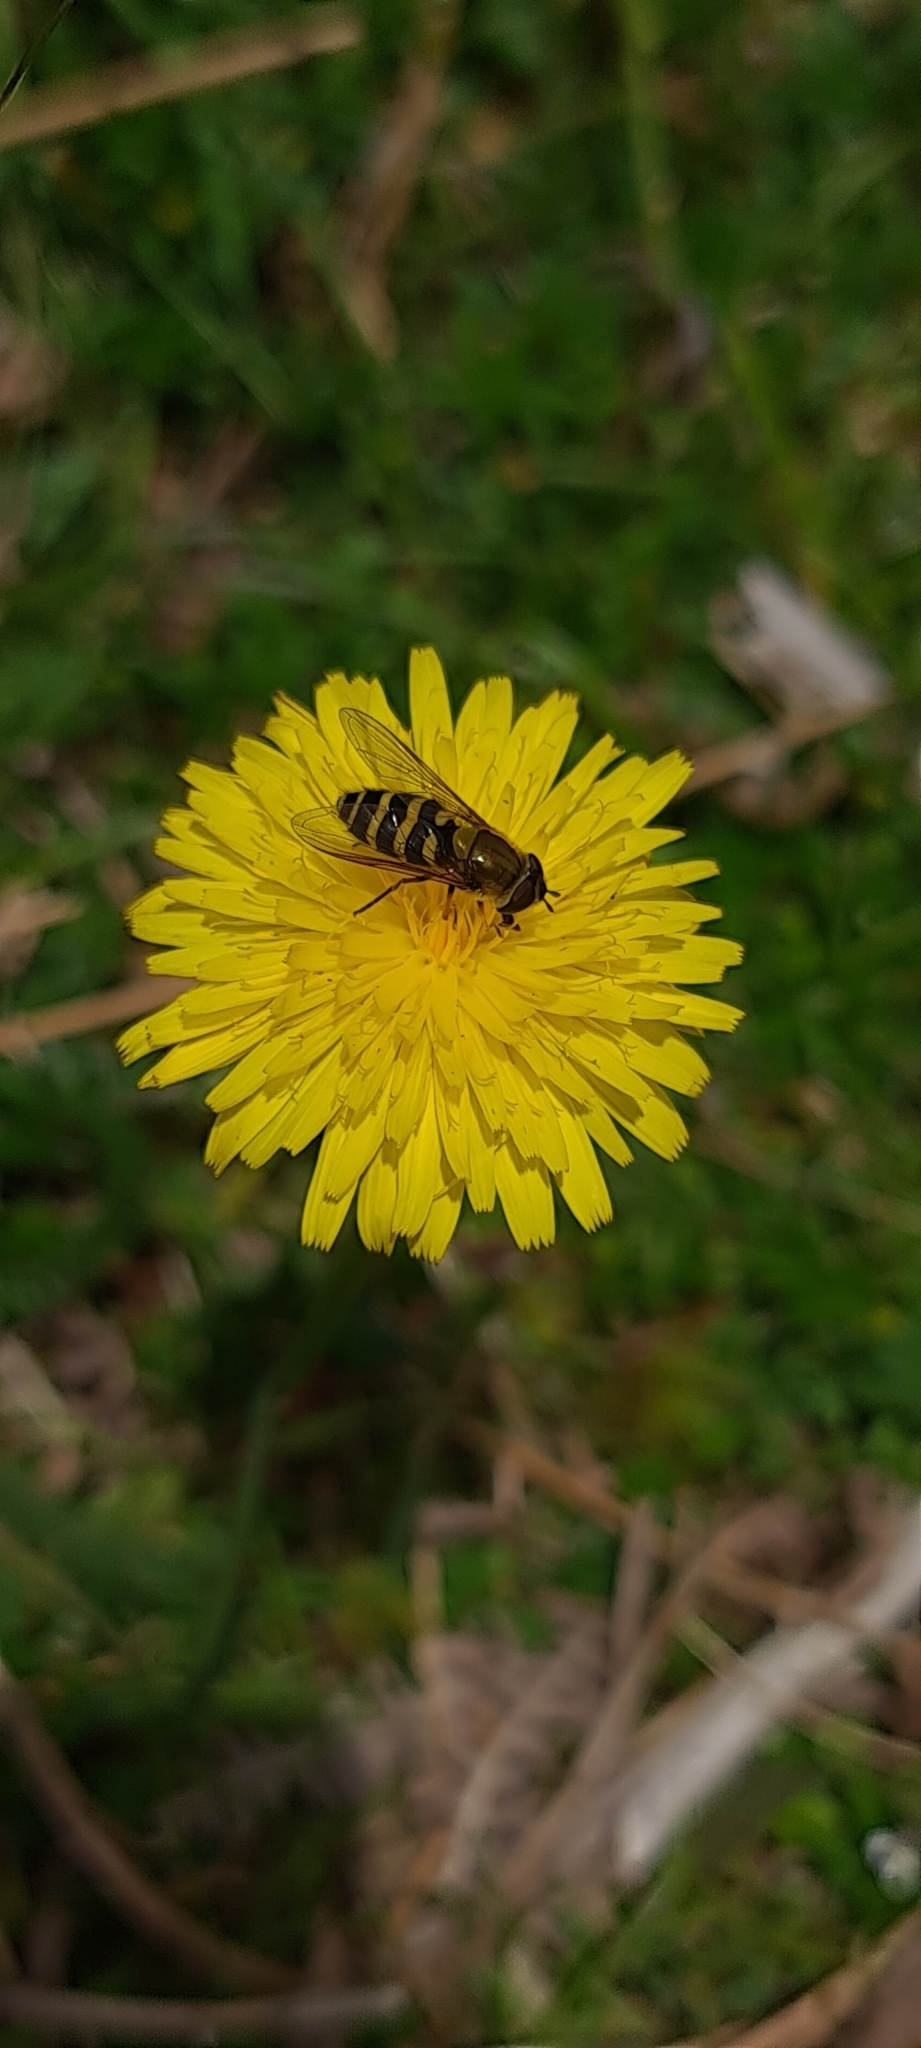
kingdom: Animalia
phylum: Arthropoda
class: Insecta
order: Diptera
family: Syrphidae
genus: Syrphus
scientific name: Syrphus
